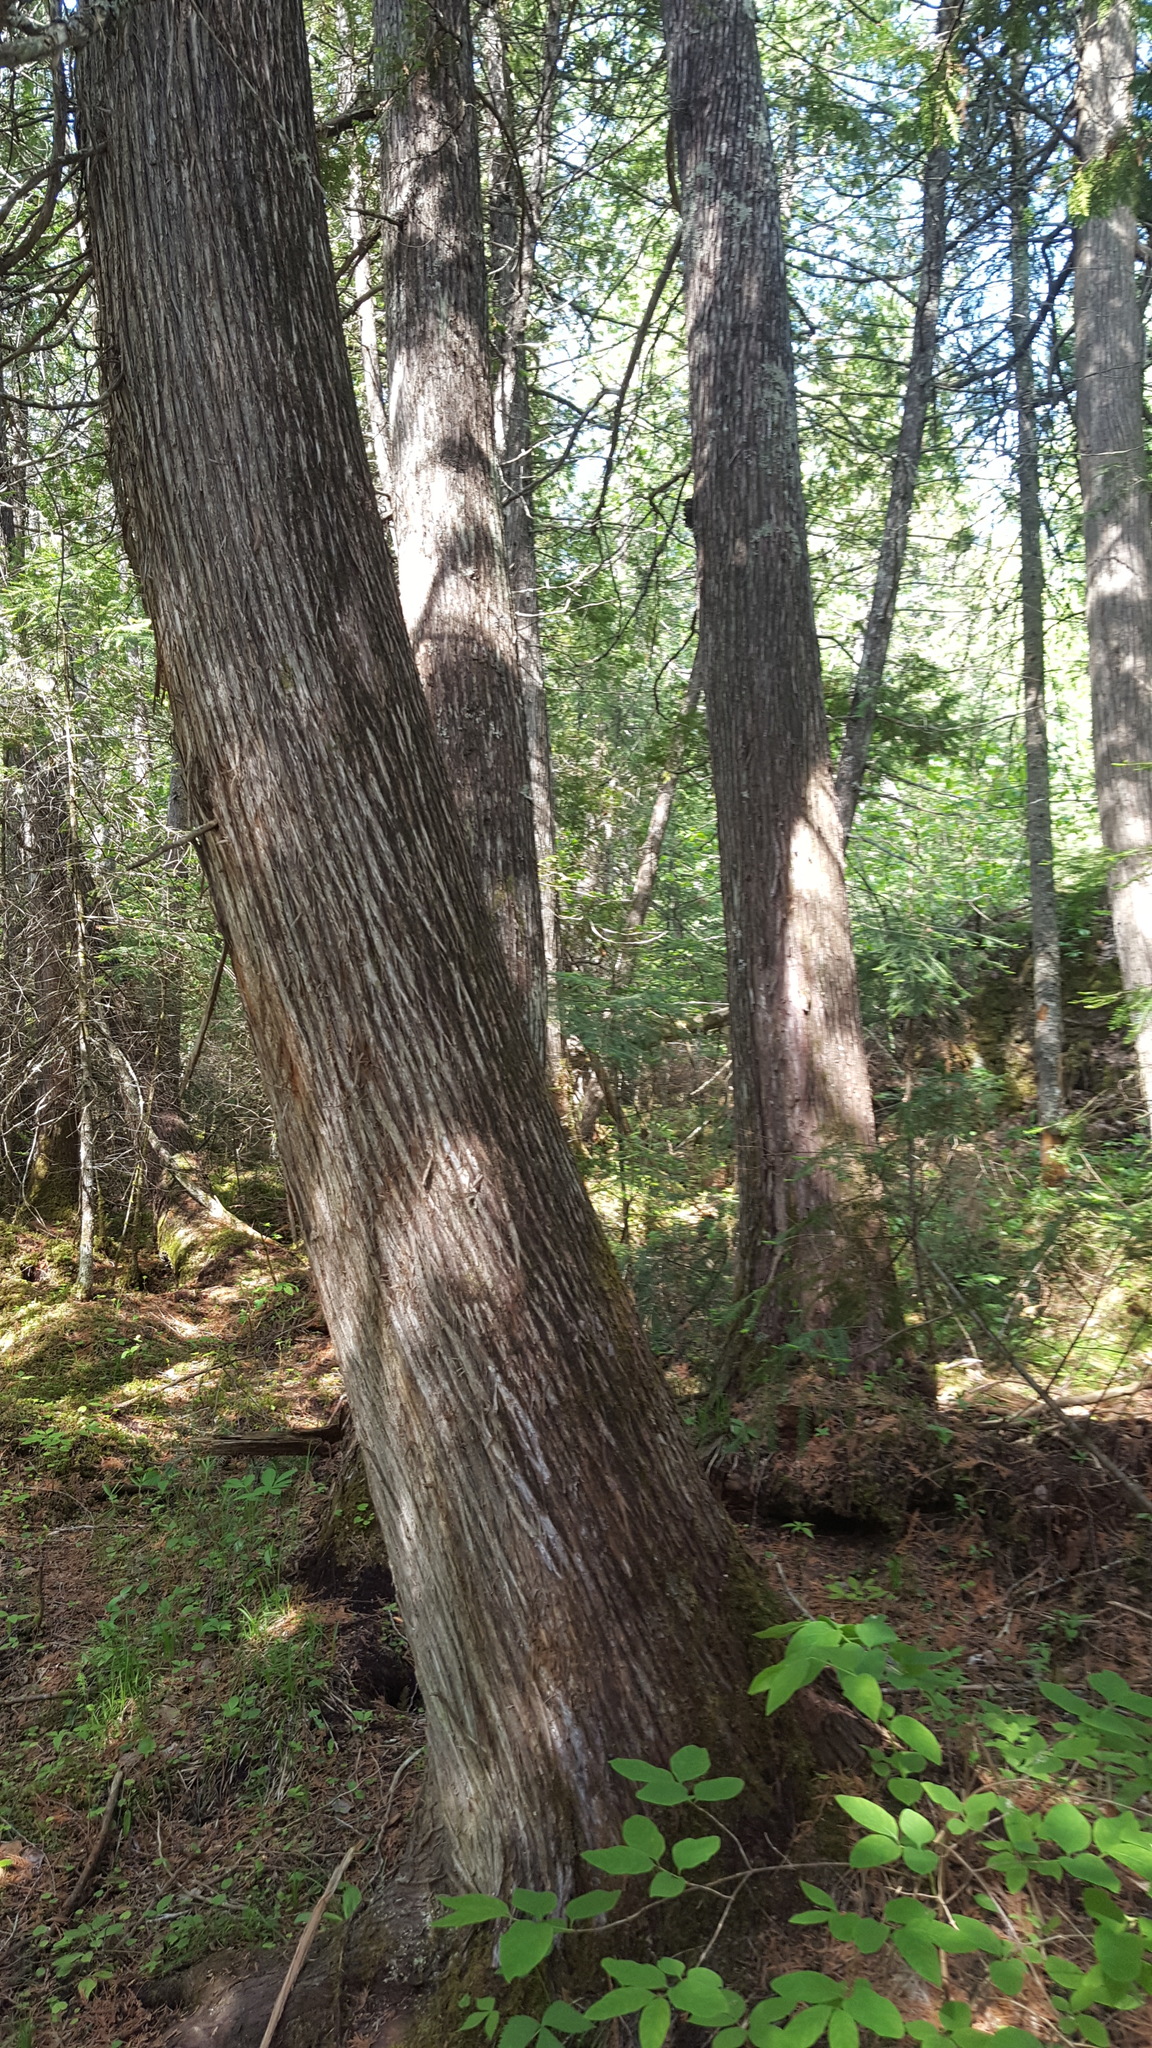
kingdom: Plantae
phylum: Tracheophyta
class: Pinopsida
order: Pinales
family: Cupressaceae
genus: Thuja
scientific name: Thuja occidentalis
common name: Northern white-cedar
